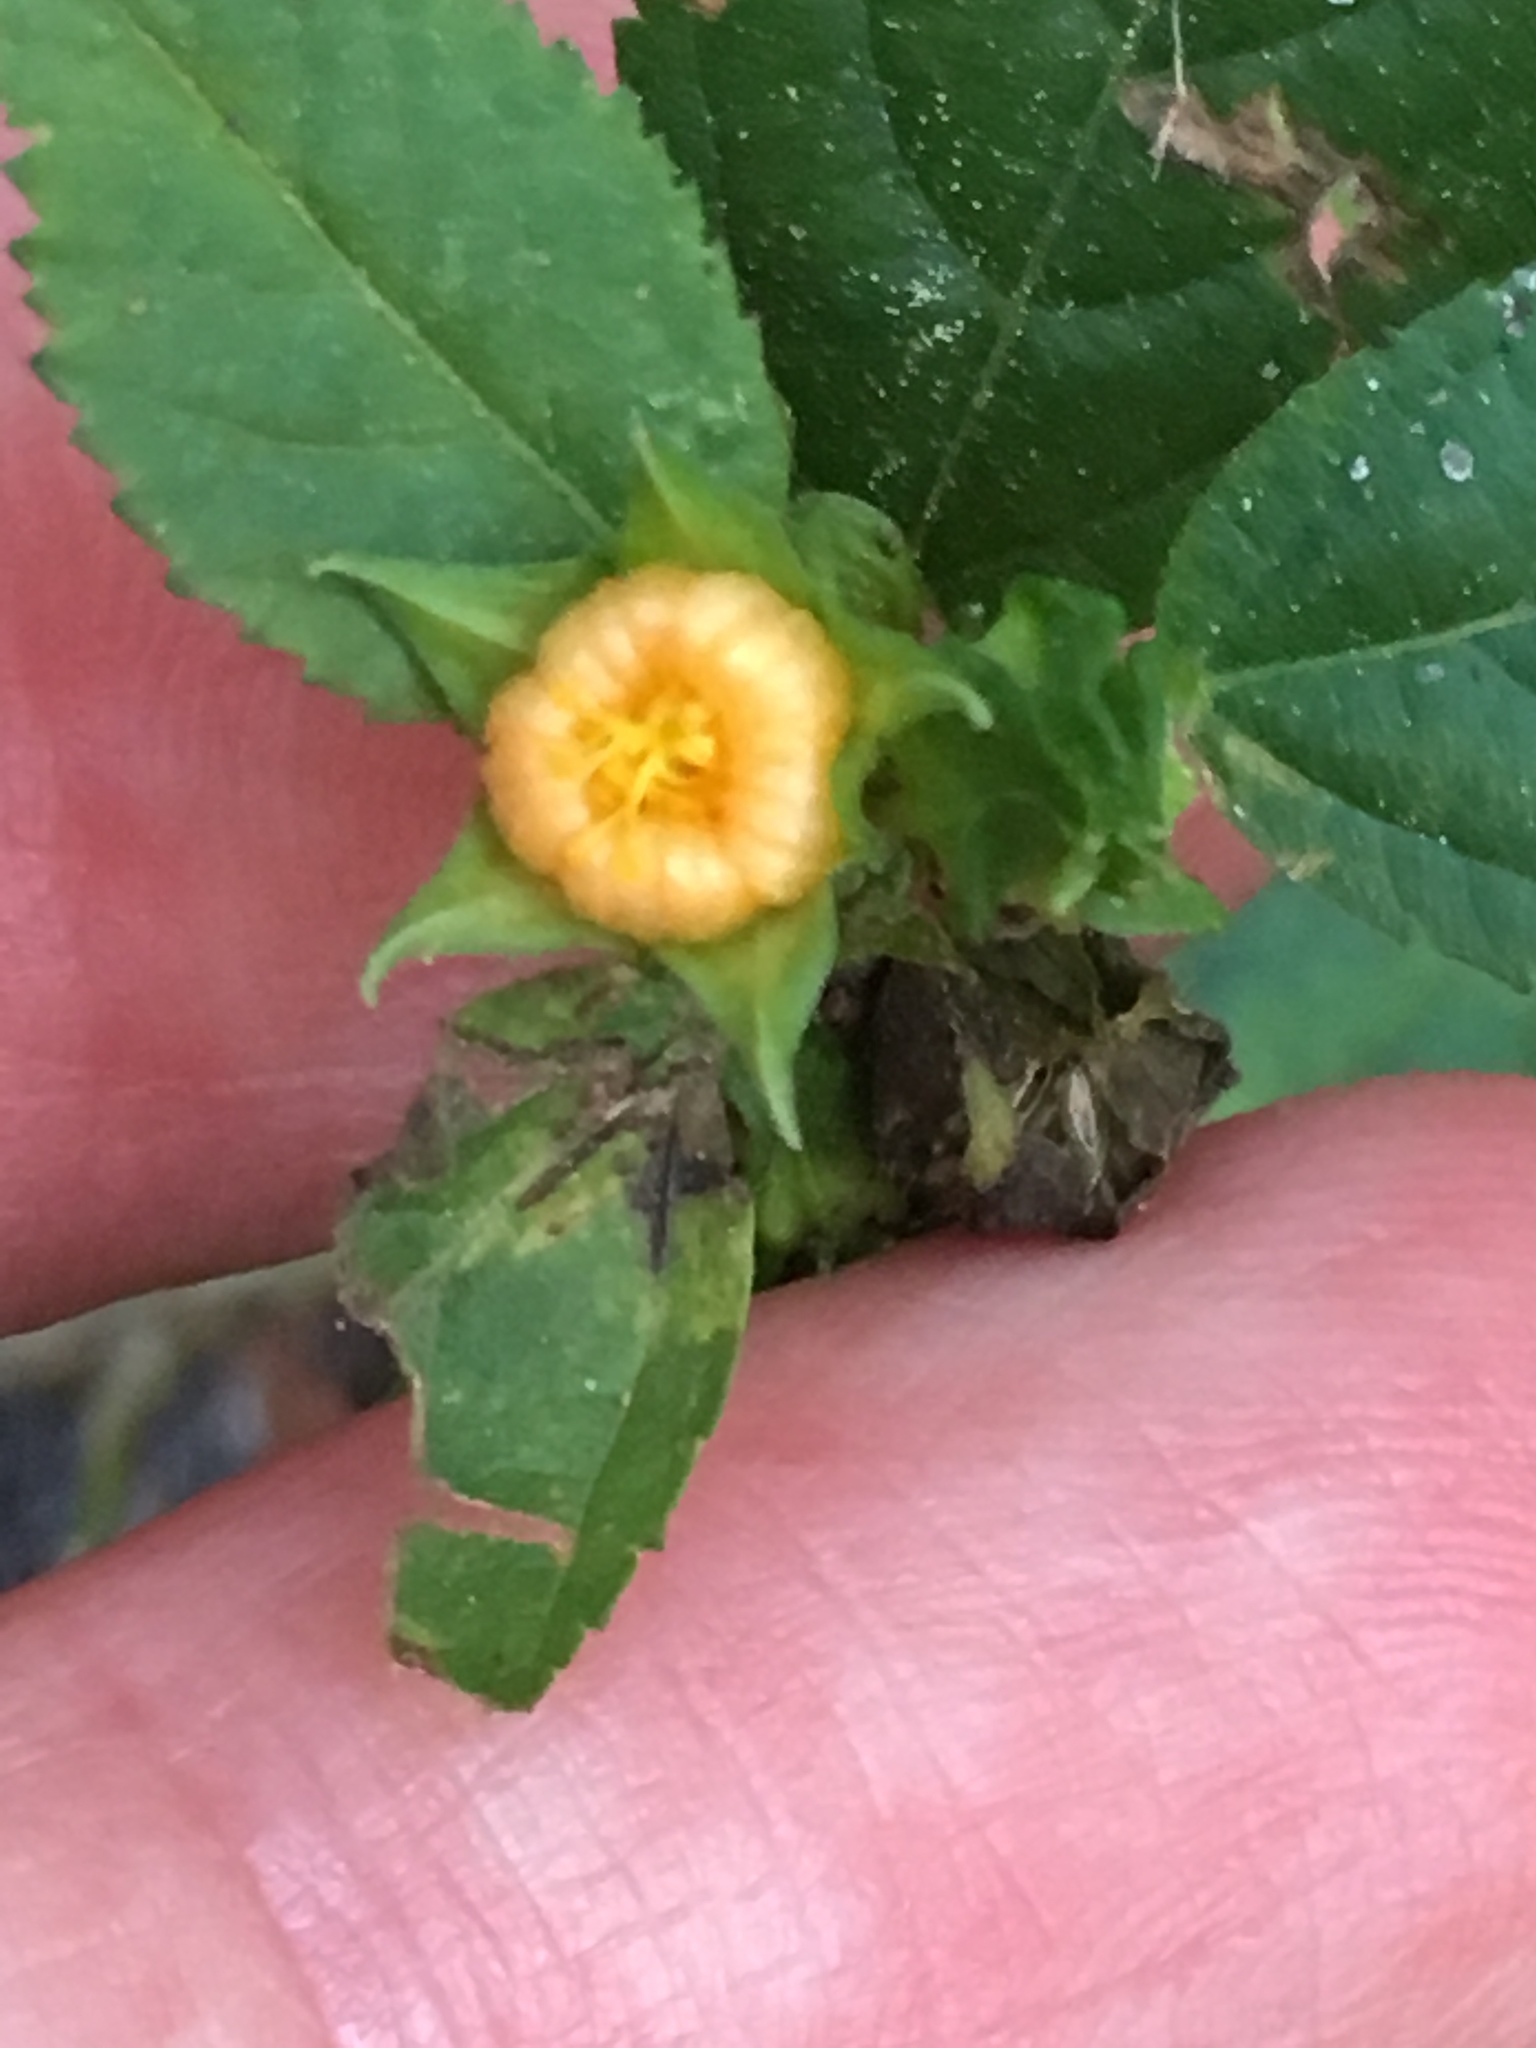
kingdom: Plantae
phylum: Tracheophyta
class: Magnoliopsida
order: Malvales
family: Malvaceae
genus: Sida
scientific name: Sida ulmifolia
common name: Broom weed
